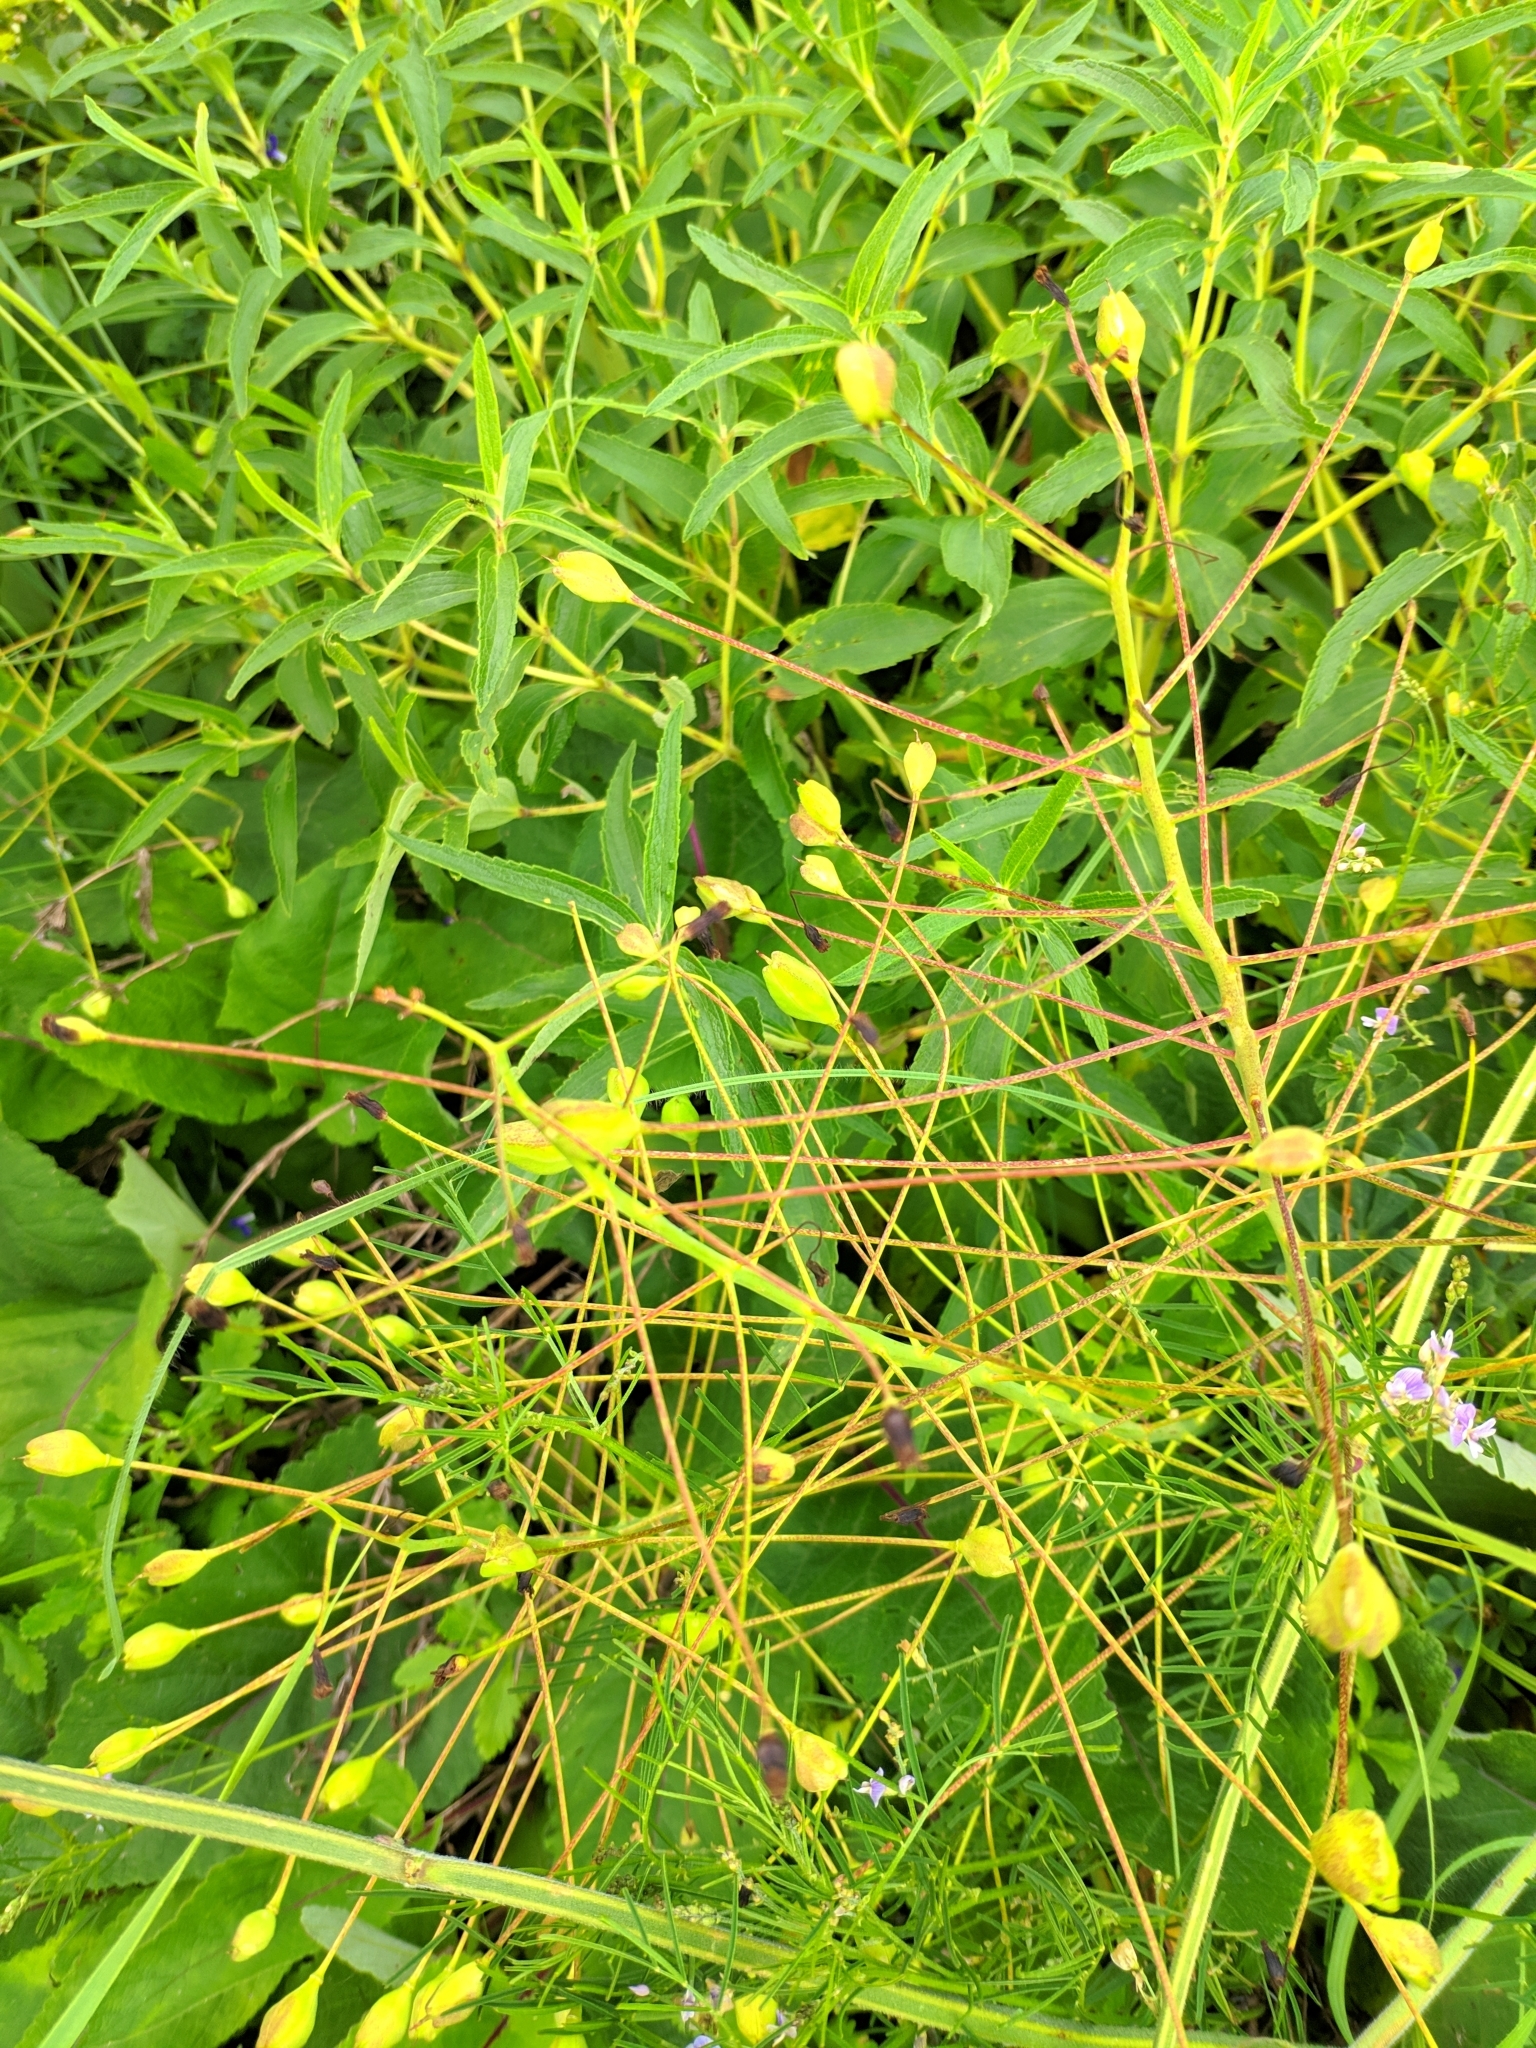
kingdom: Plantae
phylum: Tracheophyta
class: Liliopsida
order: Asparagales
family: Asparagaceae
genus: Bellevalia
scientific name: Bellevalia speciosa
